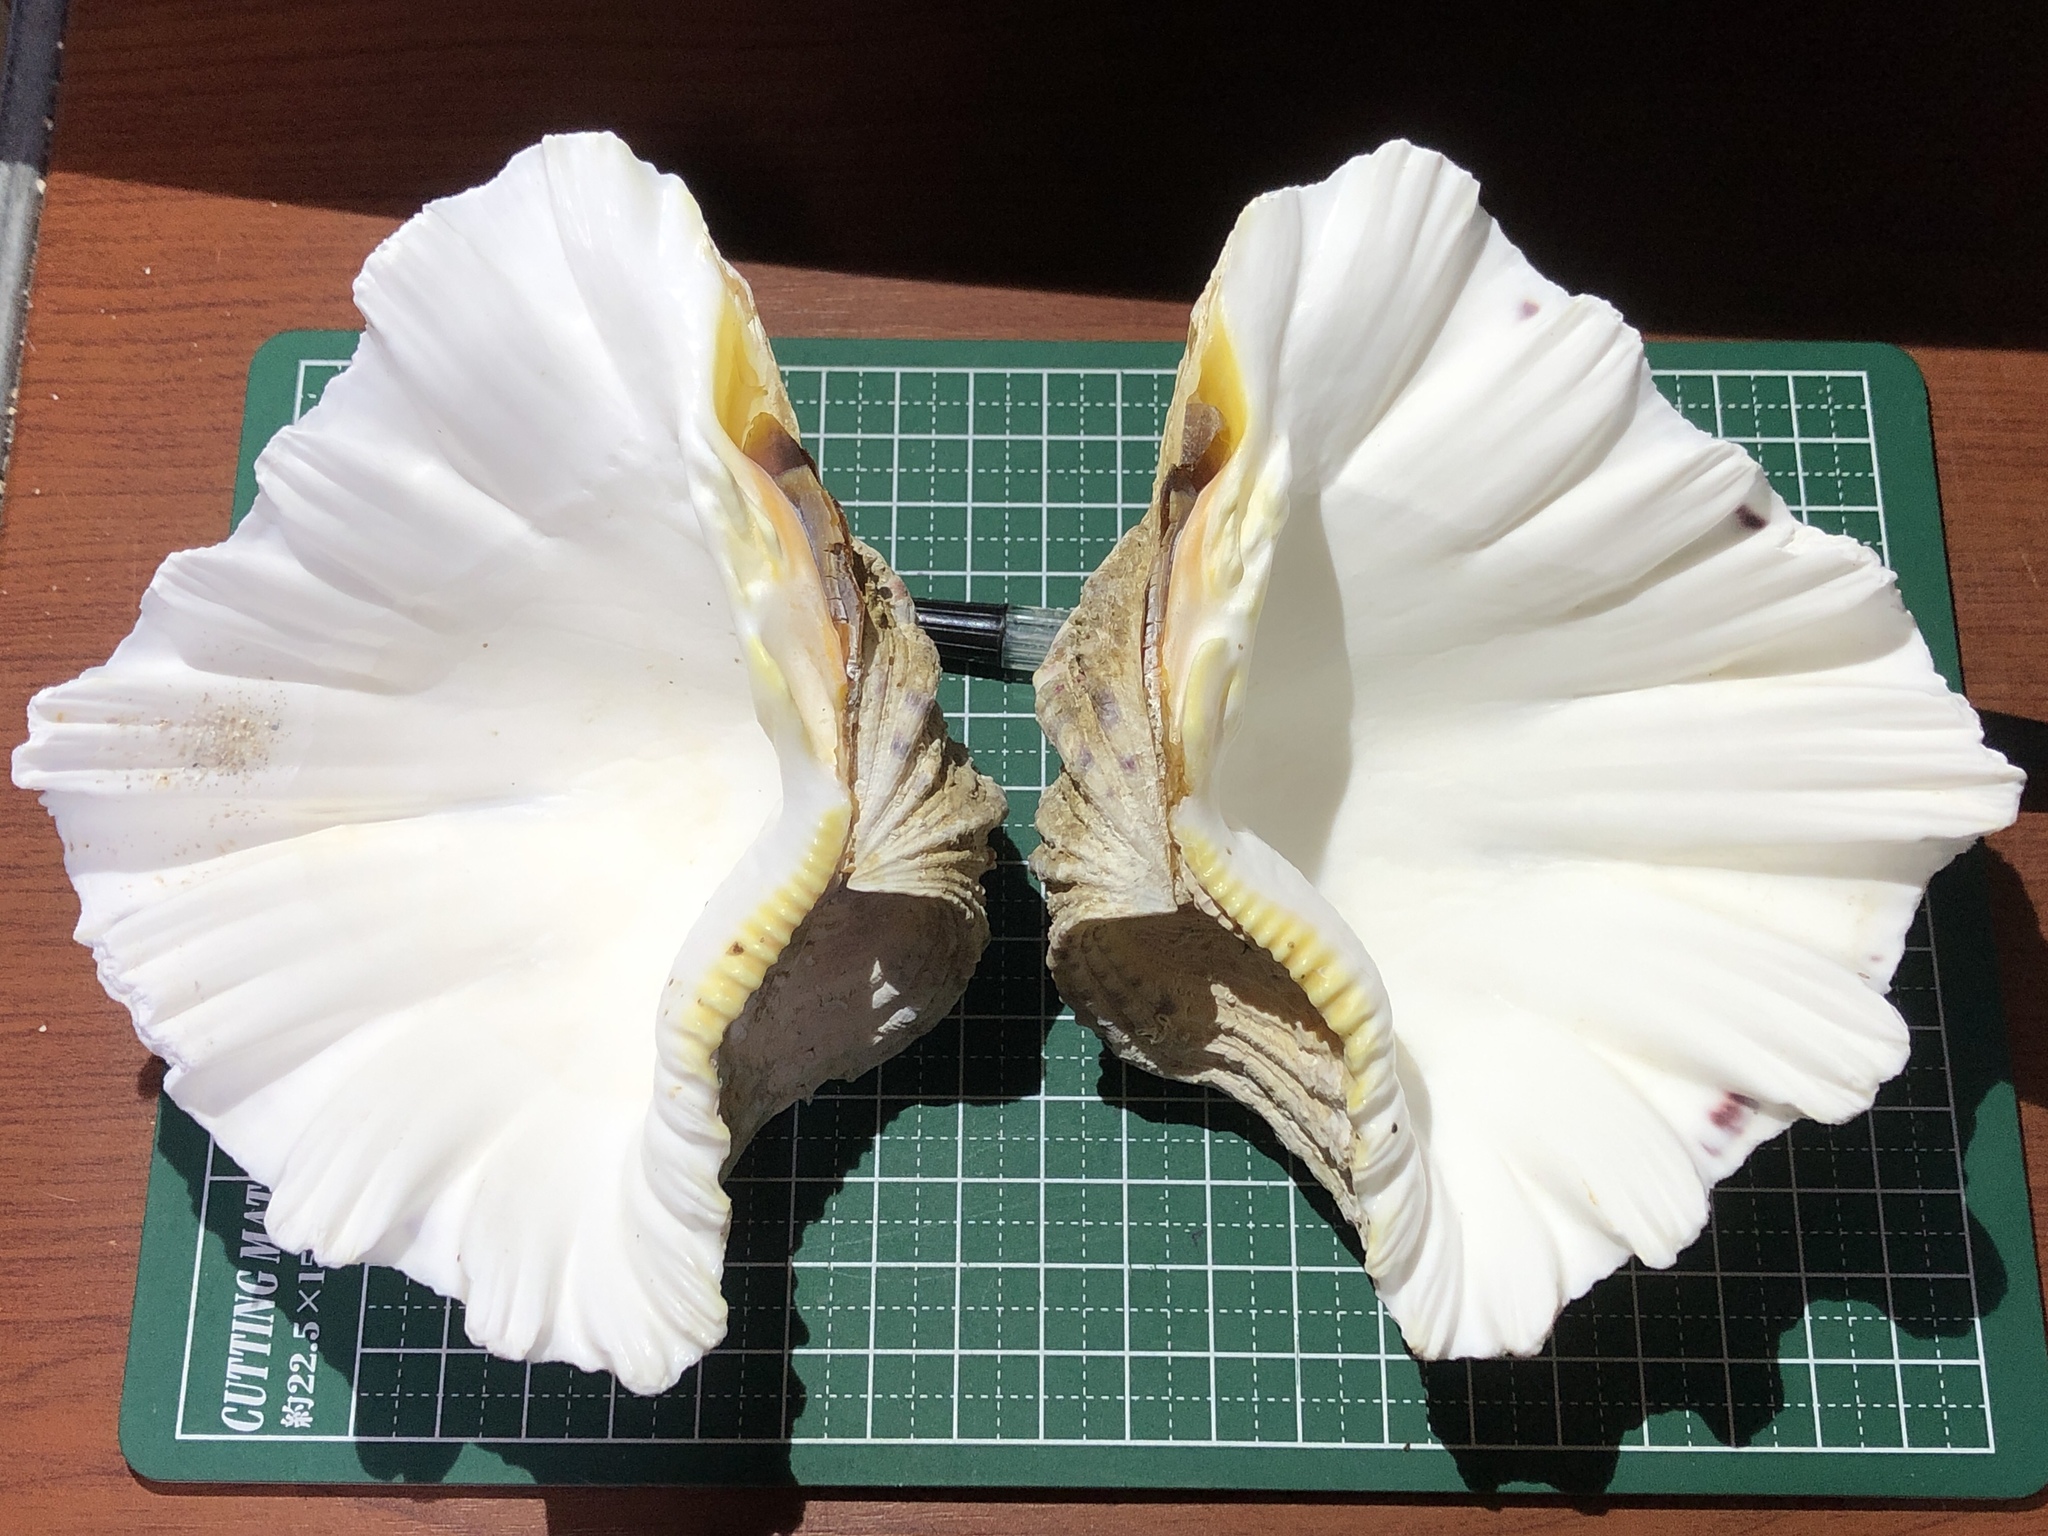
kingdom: Animalia
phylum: Mollusca
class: Bivalvia
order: Cardiida
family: Cardiidae
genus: Hippopus
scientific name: Hippopus hippopus
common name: Bear paw clam
